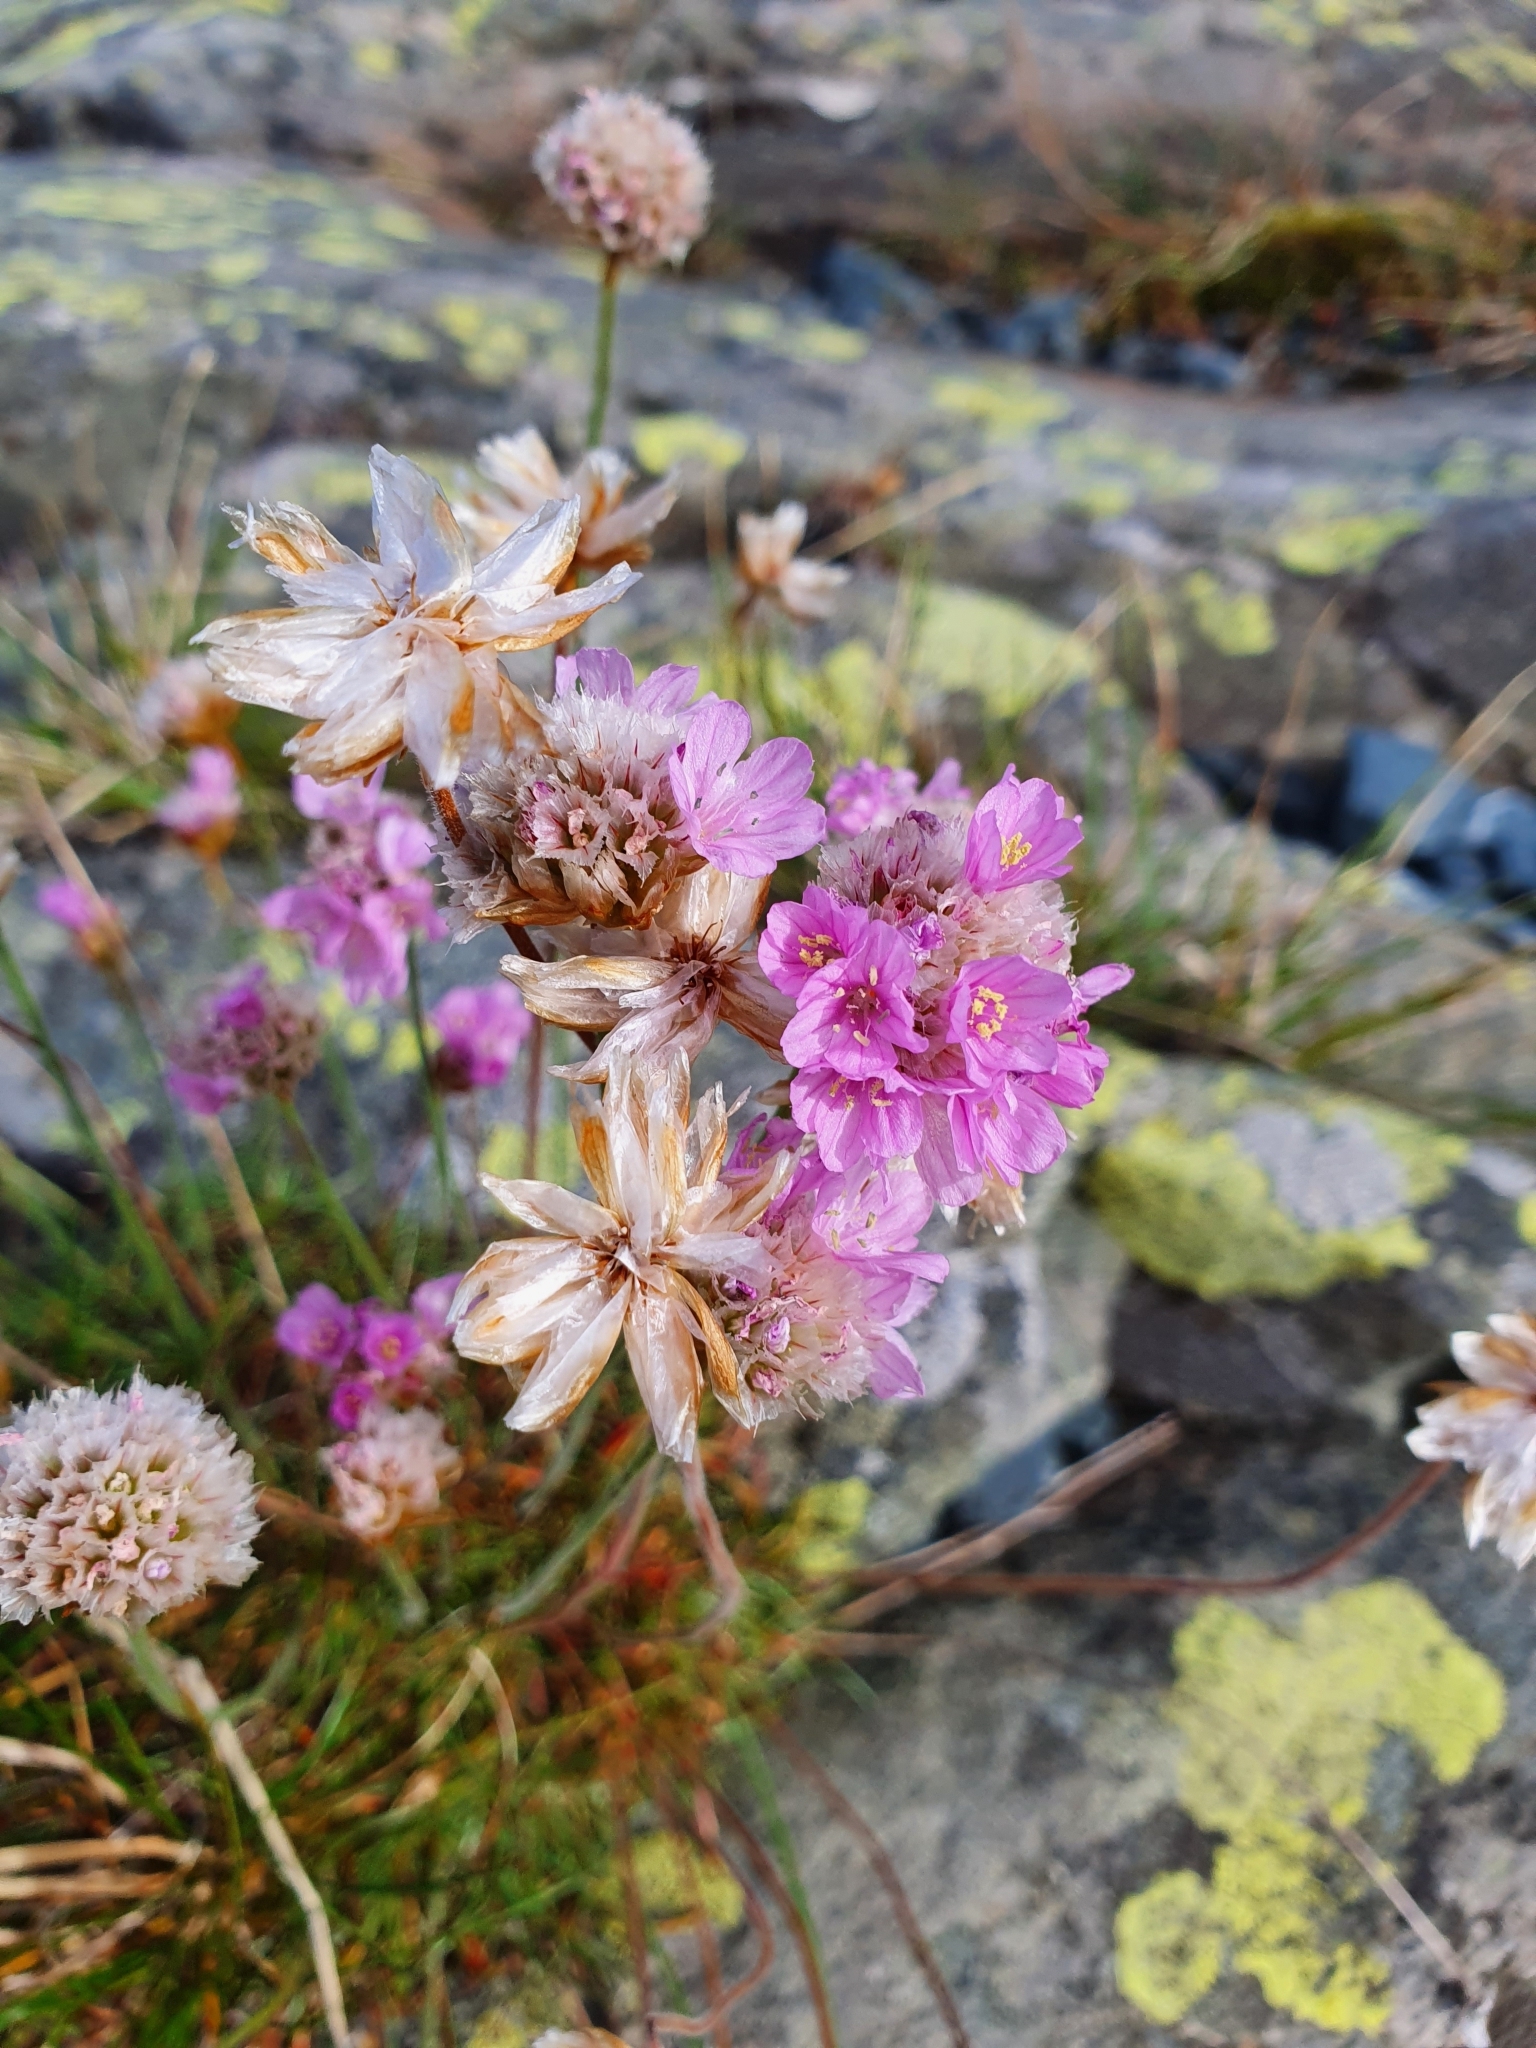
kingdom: Plantae
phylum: Tracheophyta
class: Magnoliopsida
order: Caryophyllales
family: Plumbaginaceae
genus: Armeria
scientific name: Armeria maritima
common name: Thrift
